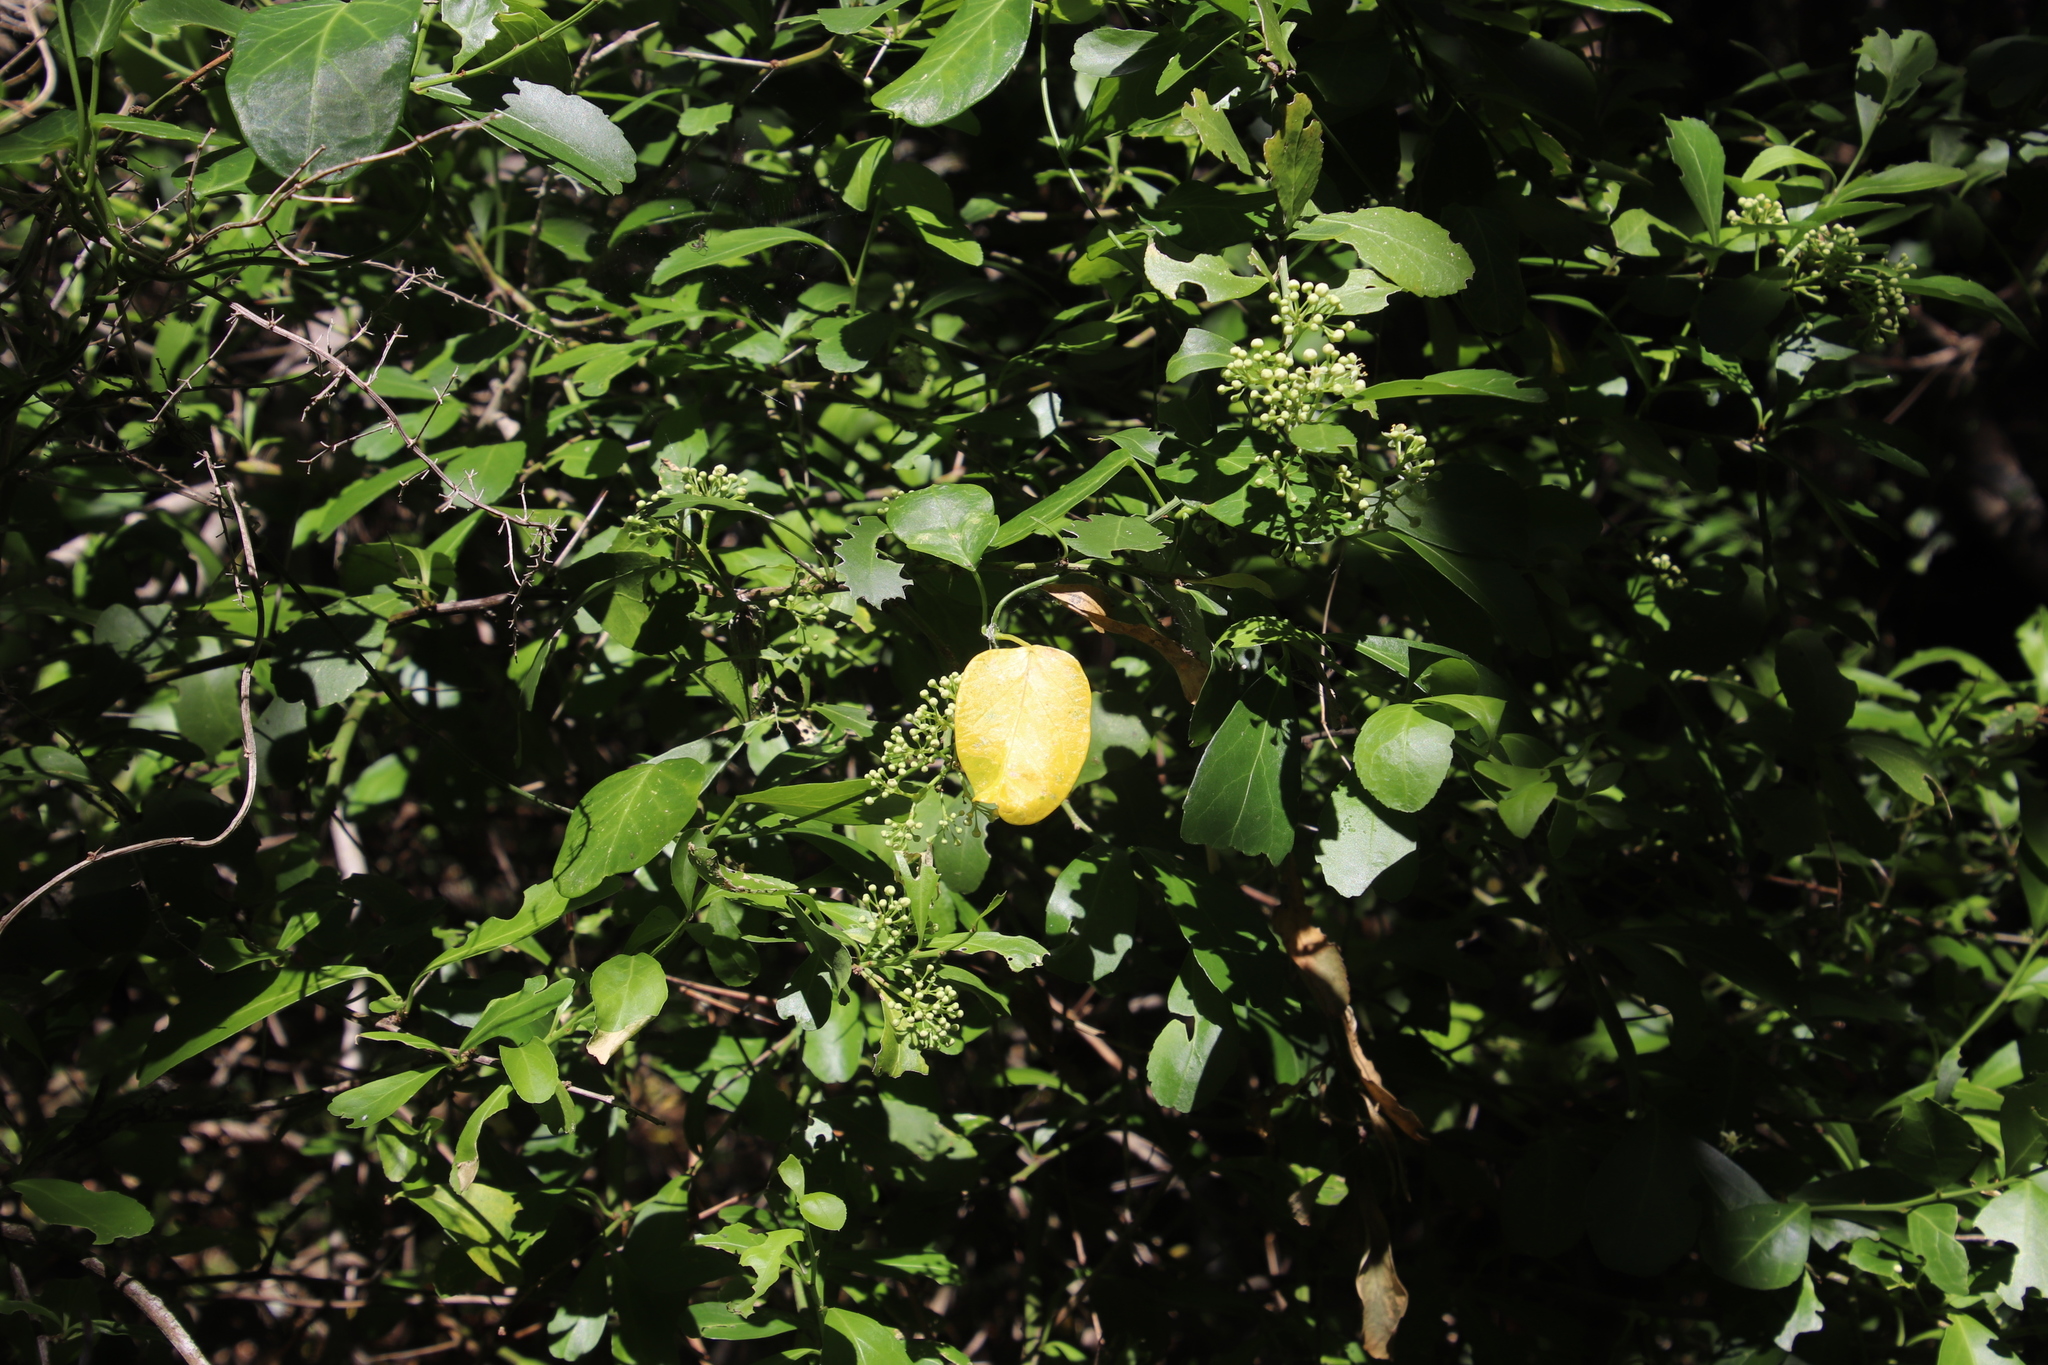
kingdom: Plantae
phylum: Tracheophyta
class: Magnoliopsida
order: Celastrales
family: Celastraceae
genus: Gymnosporia
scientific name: Gymnosporia buxifolia
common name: Common spike-thorn
